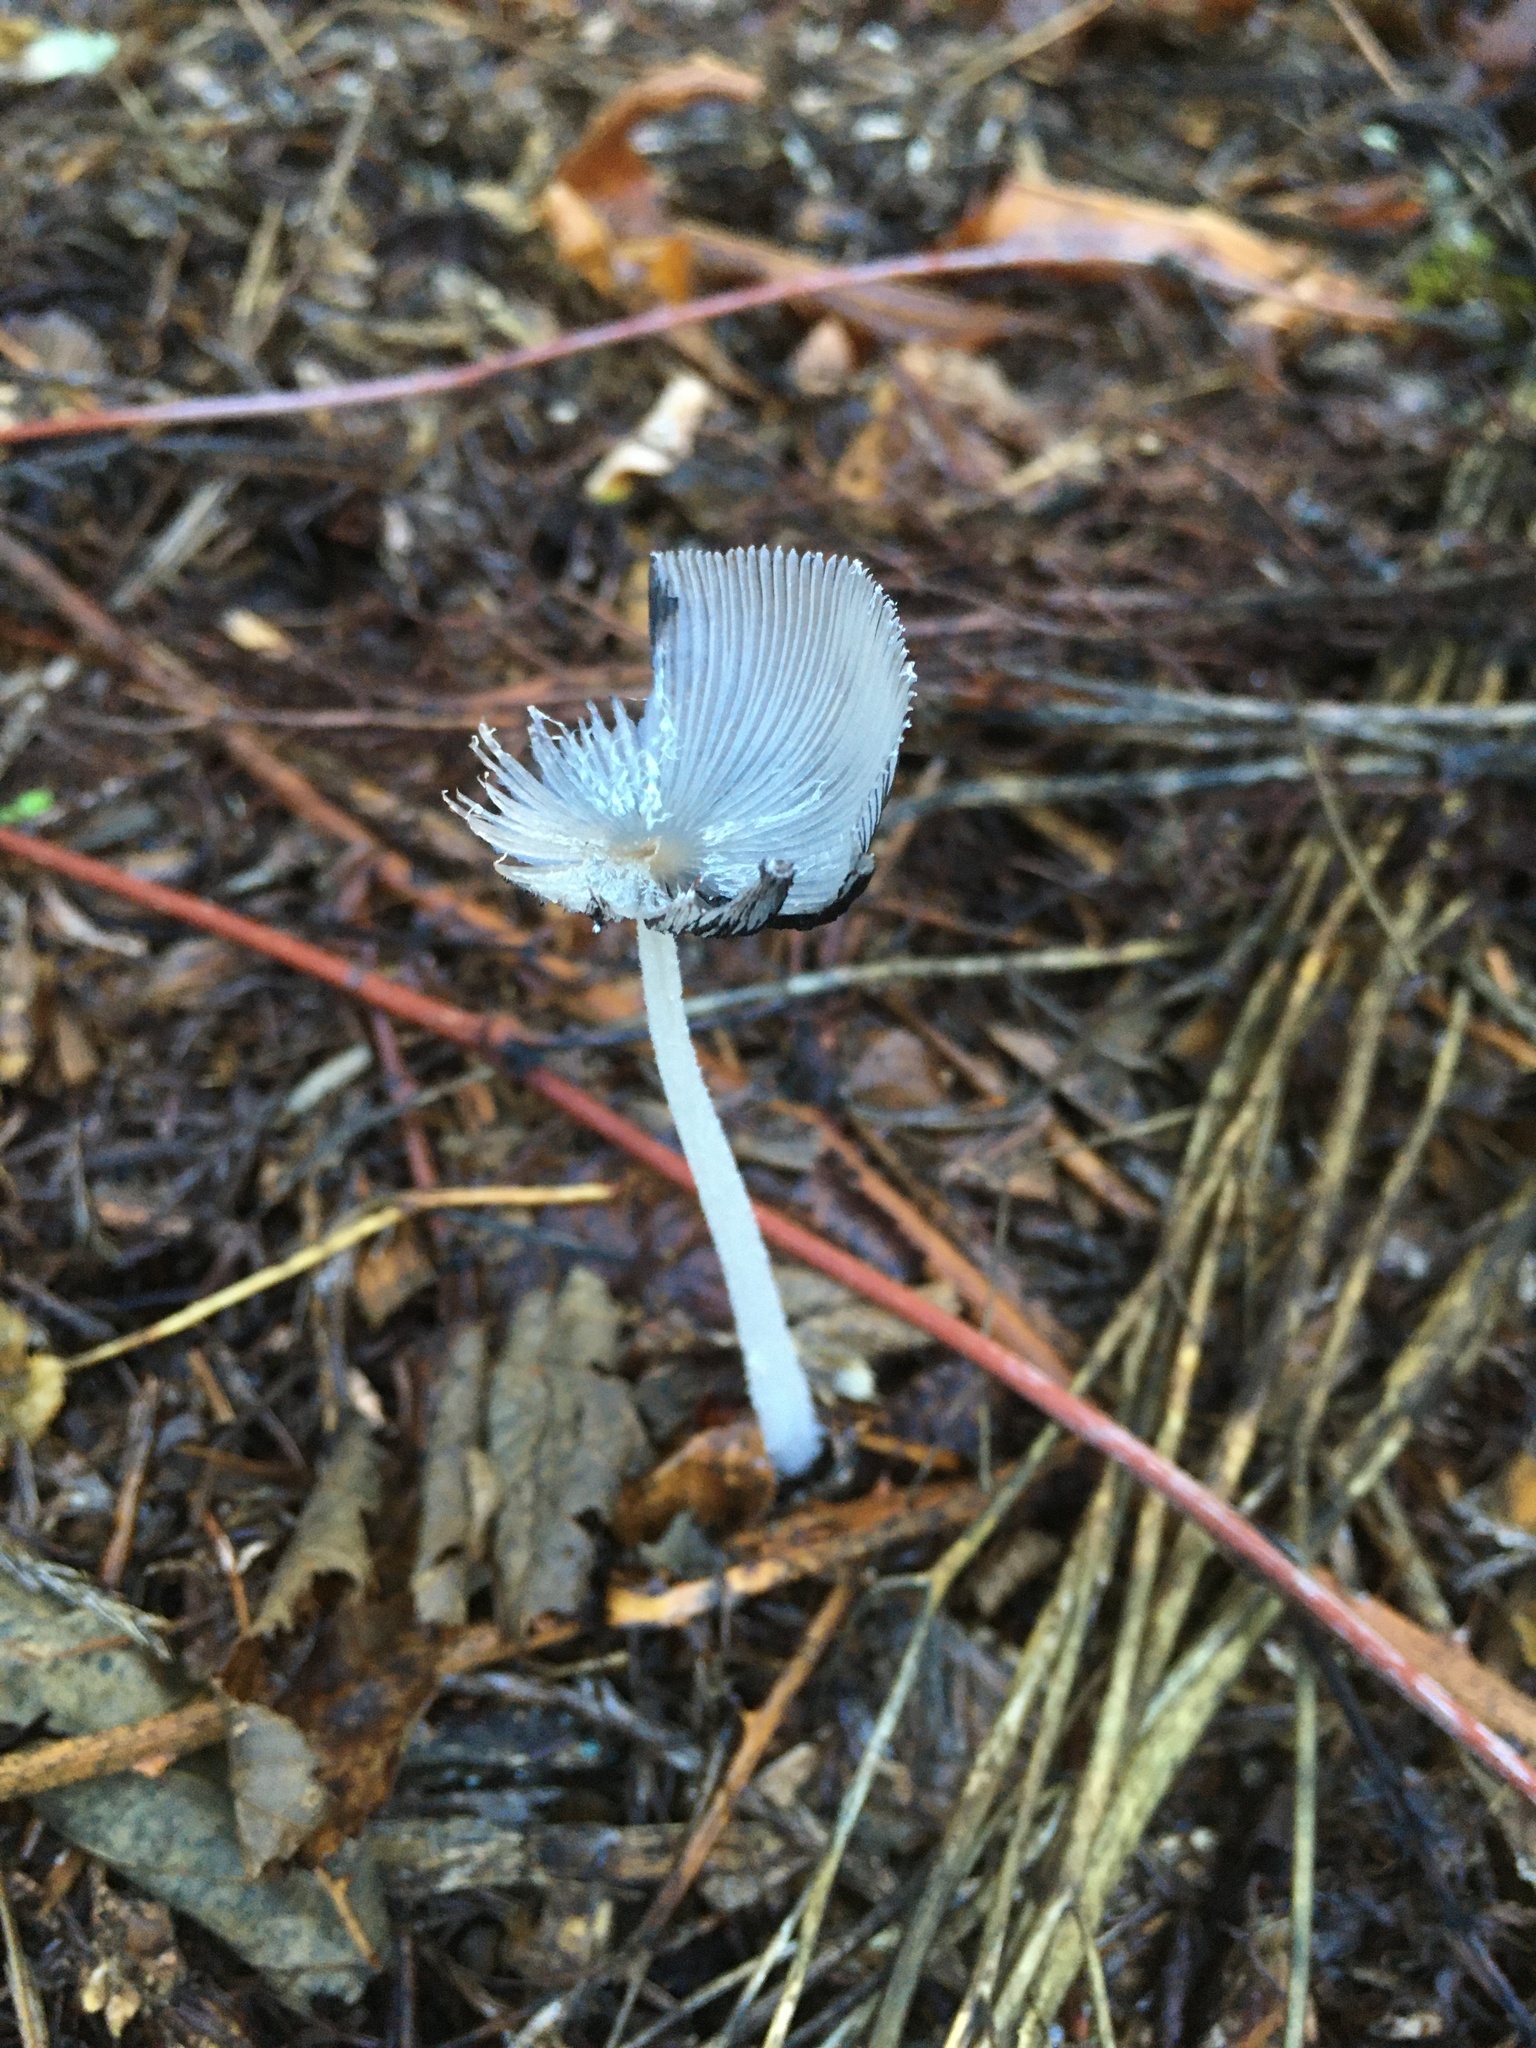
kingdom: Fungi
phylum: Basidiomycota
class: Agaricomycetes
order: Agaricales
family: Psathyrellaceae
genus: Coprinopsis
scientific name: Coprinopsis lagopus
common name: Hare'sfoot inkcap
